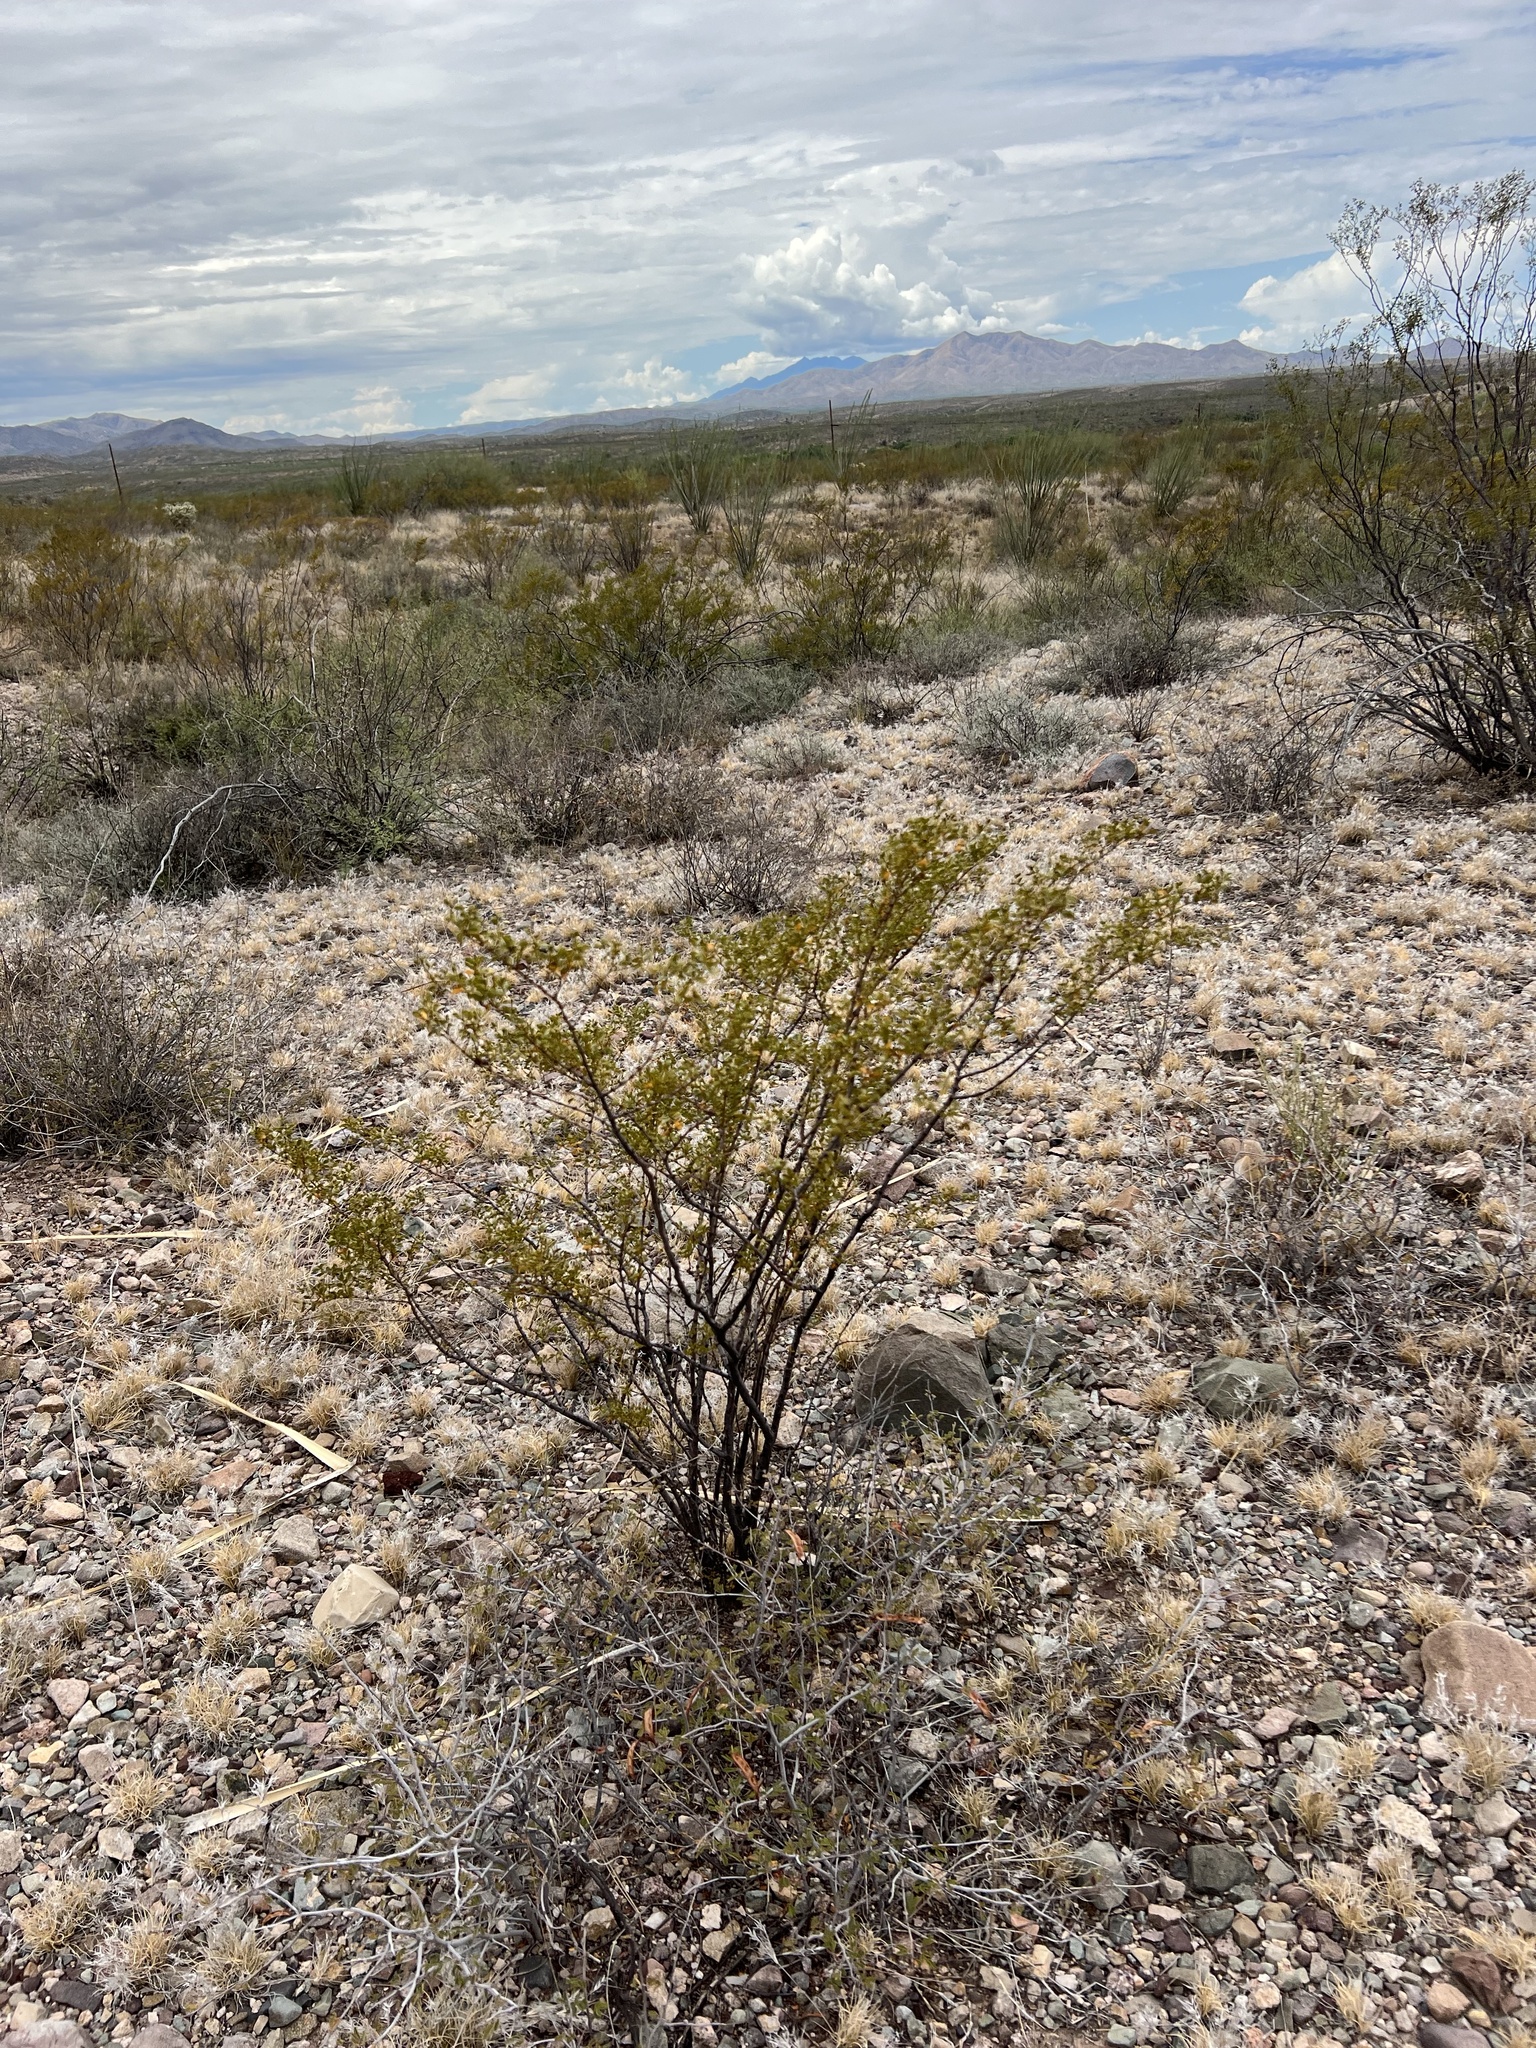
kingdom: Plantae
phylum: Tracheophyta
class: Magnoliopsida
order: Zygophyllales
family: Zygophyllaceae
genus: Larrea
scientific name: Larrea tridentata
